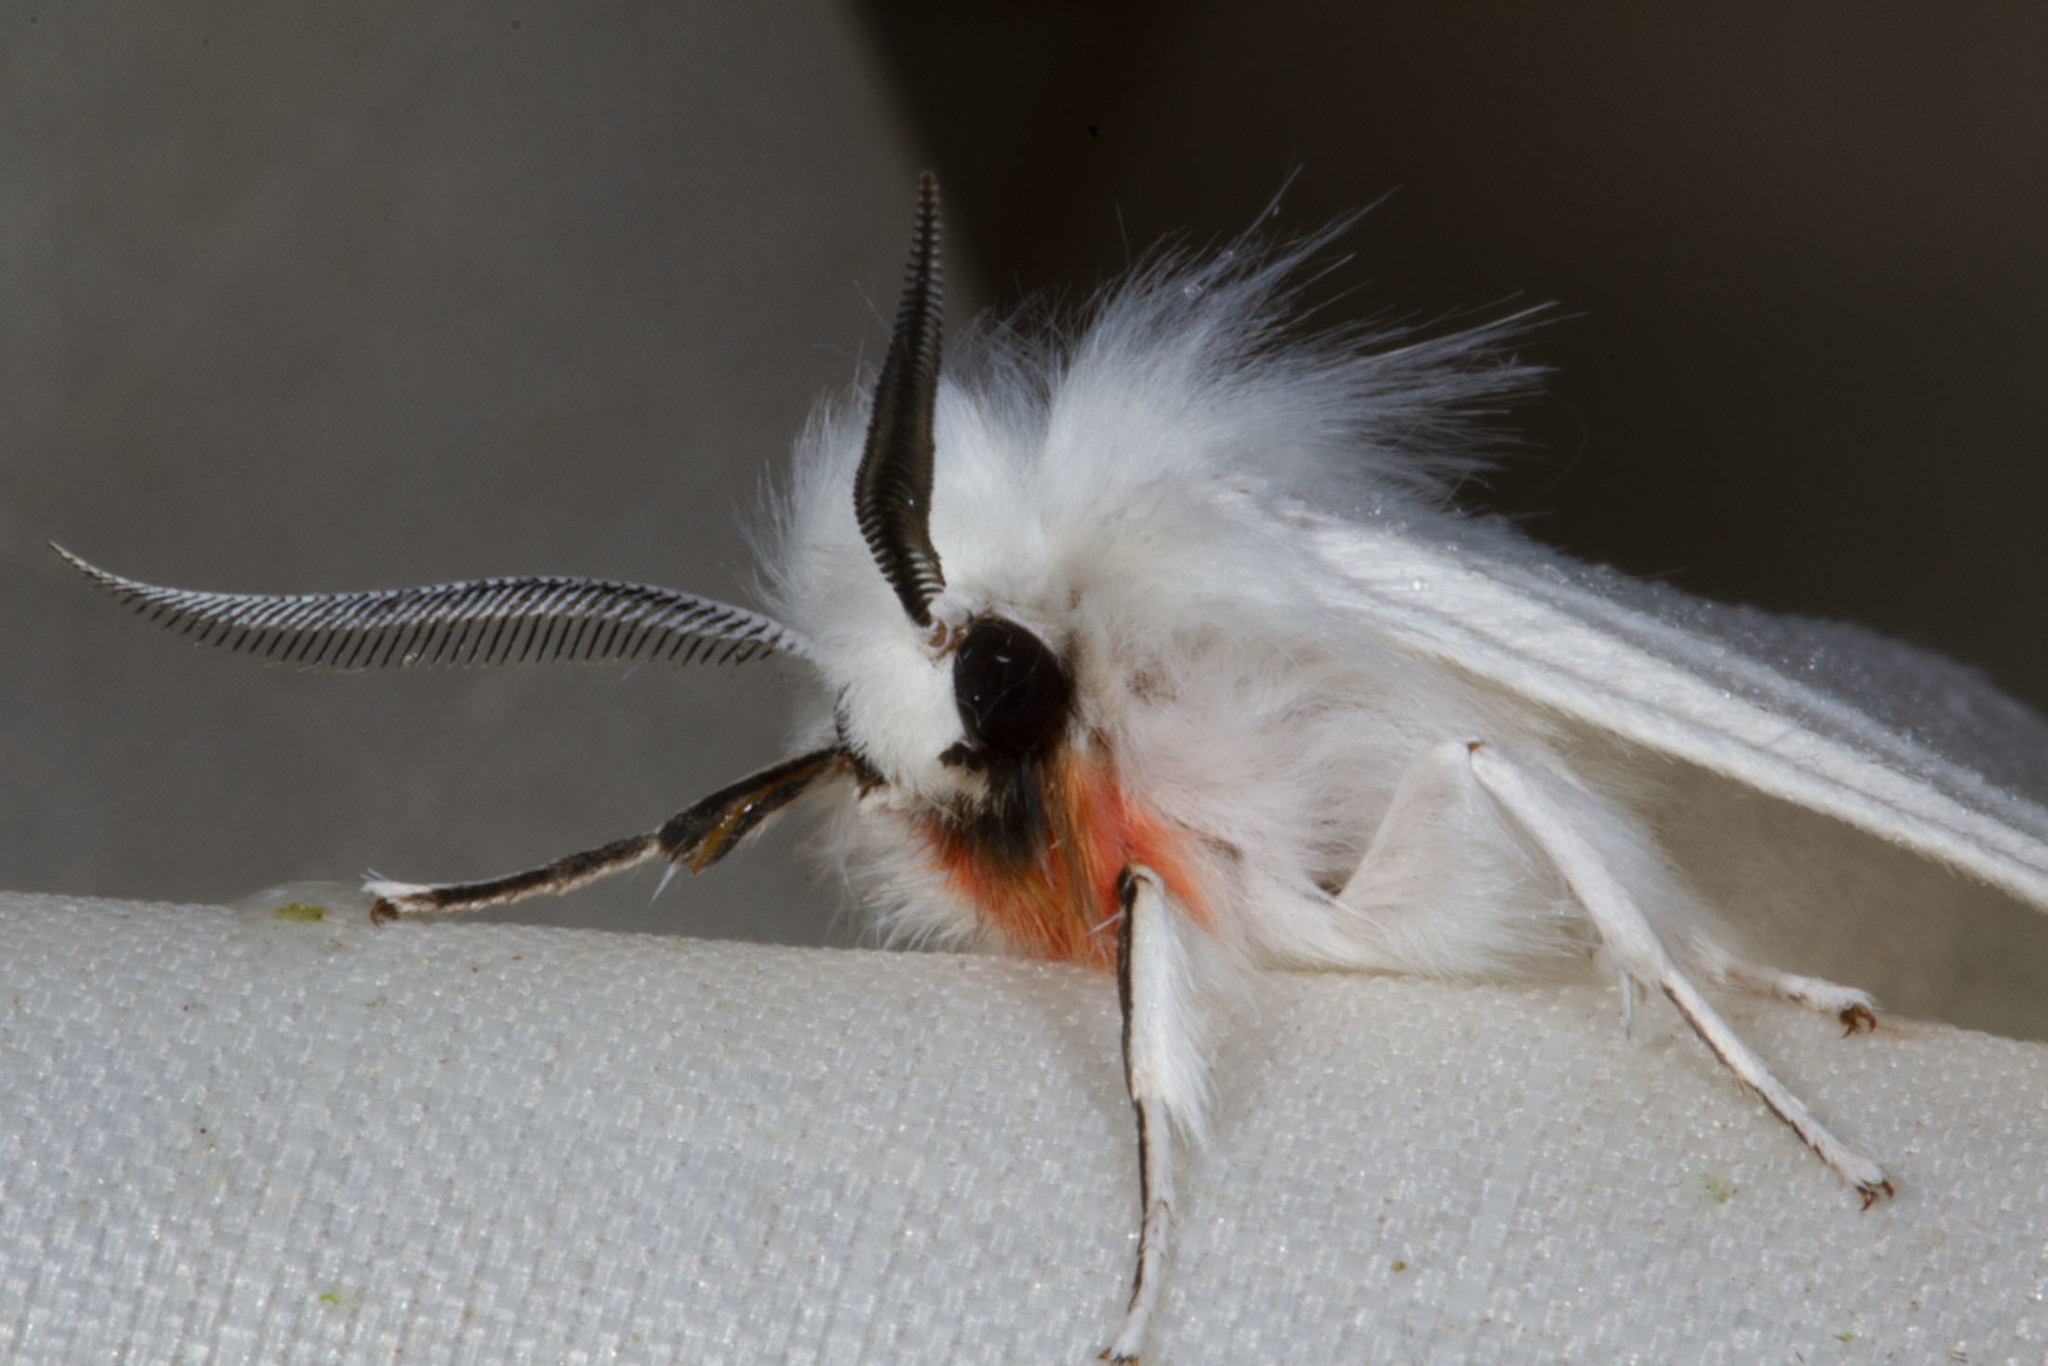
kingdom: Animalia
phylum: Arthropoda
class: Insecta
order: Lepidoptera
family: Erebidae
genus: Spilosoma
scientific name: Spilosoma latipennis
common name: Pink-legged tiger moth
